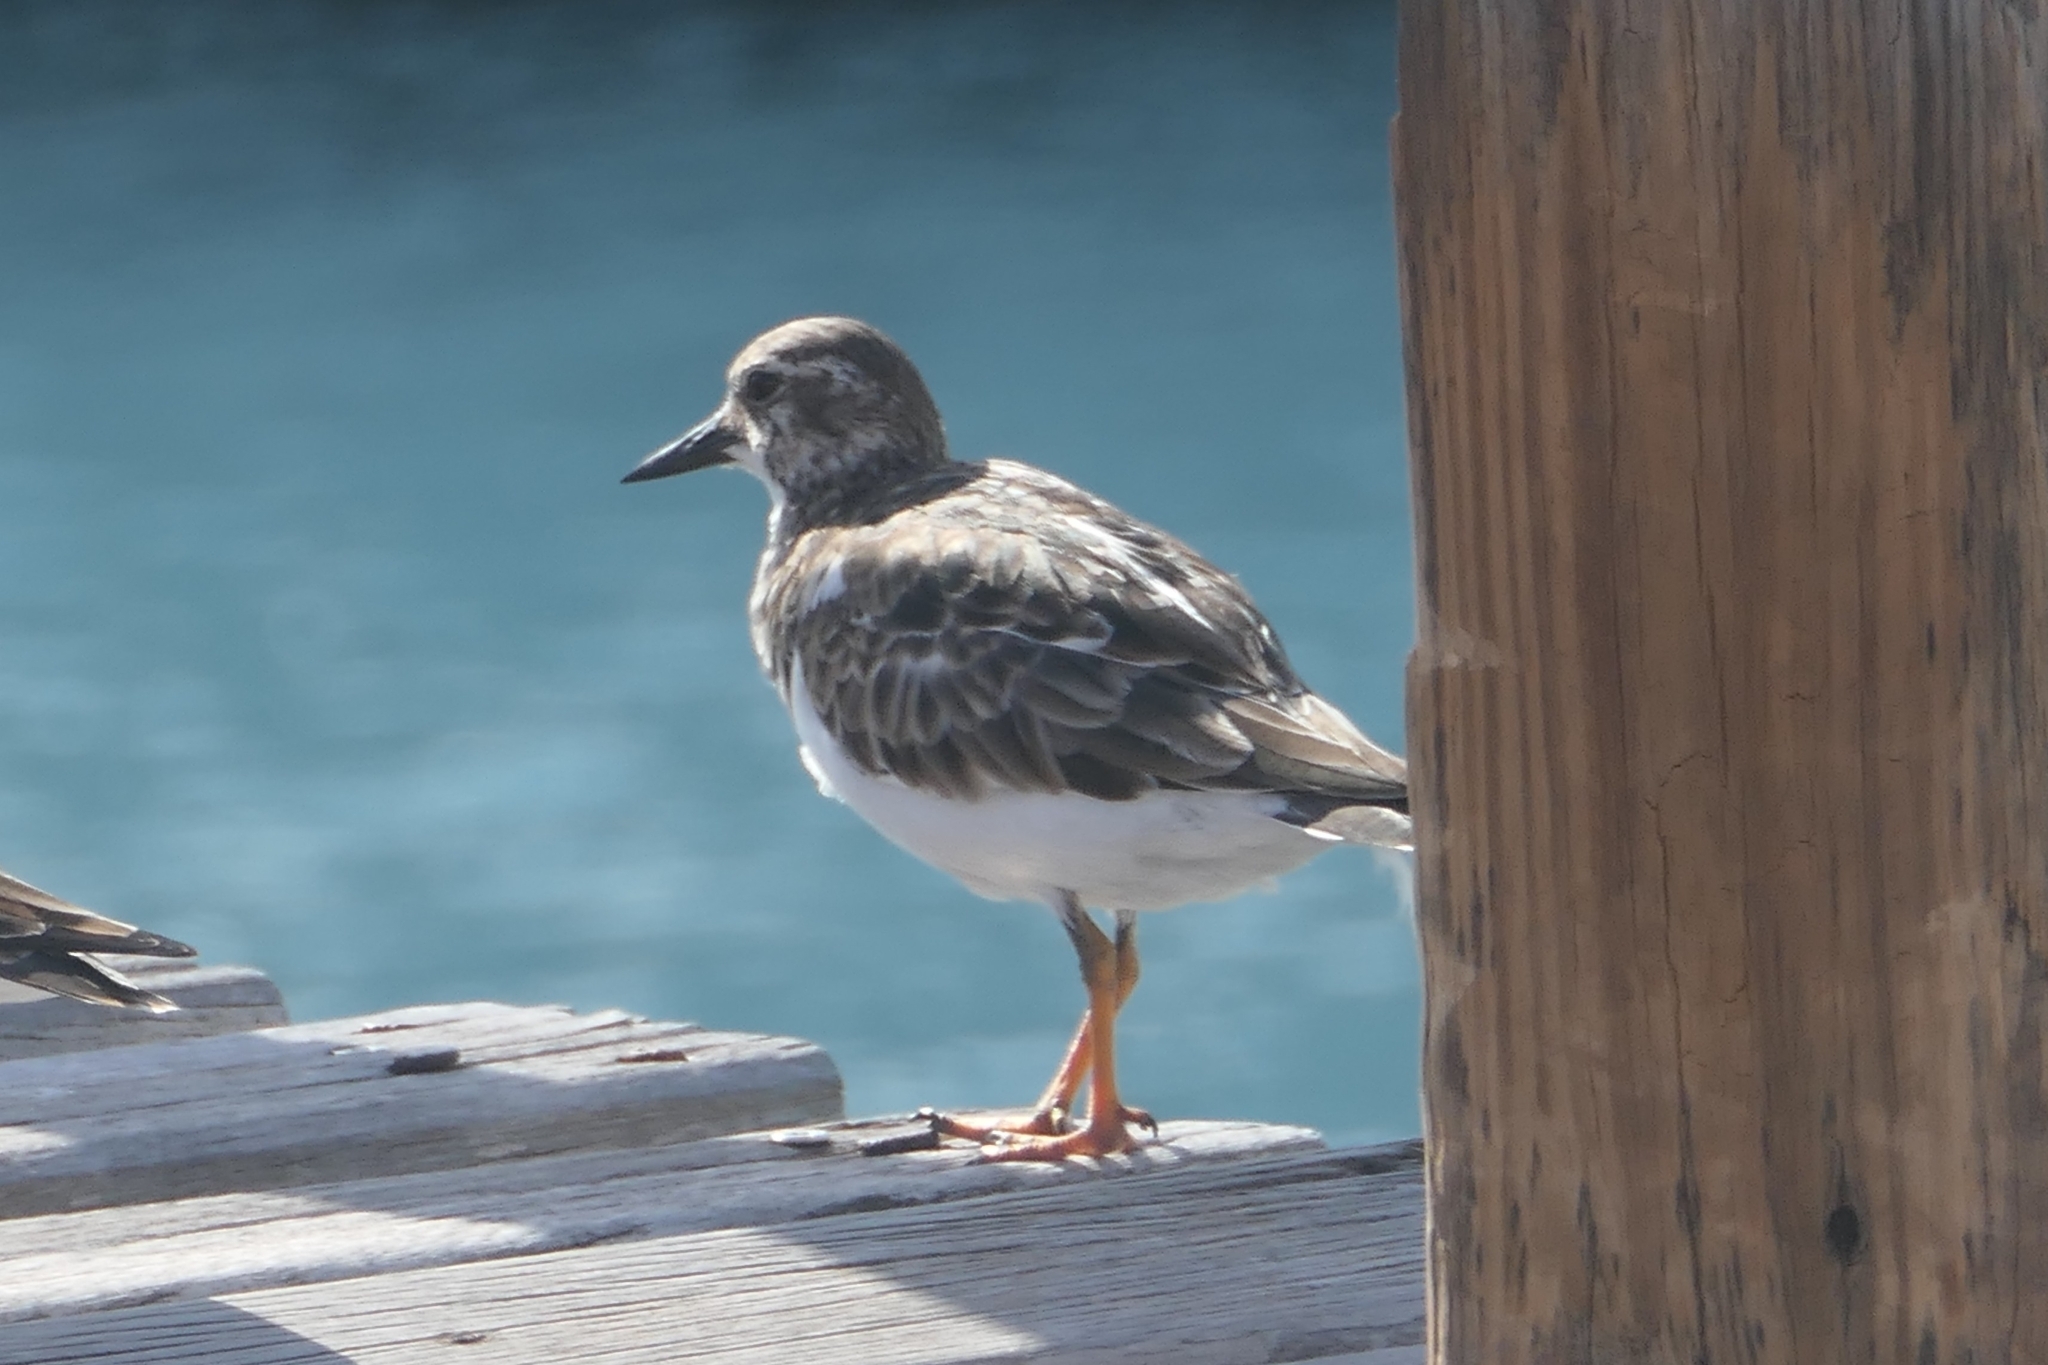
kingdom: Animalia
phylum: Chordata
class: Aves
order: Charadriiformes
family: Scolopacidae
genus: Arenaria
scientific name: Arenaria interpres
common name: Ruddy turnstone
